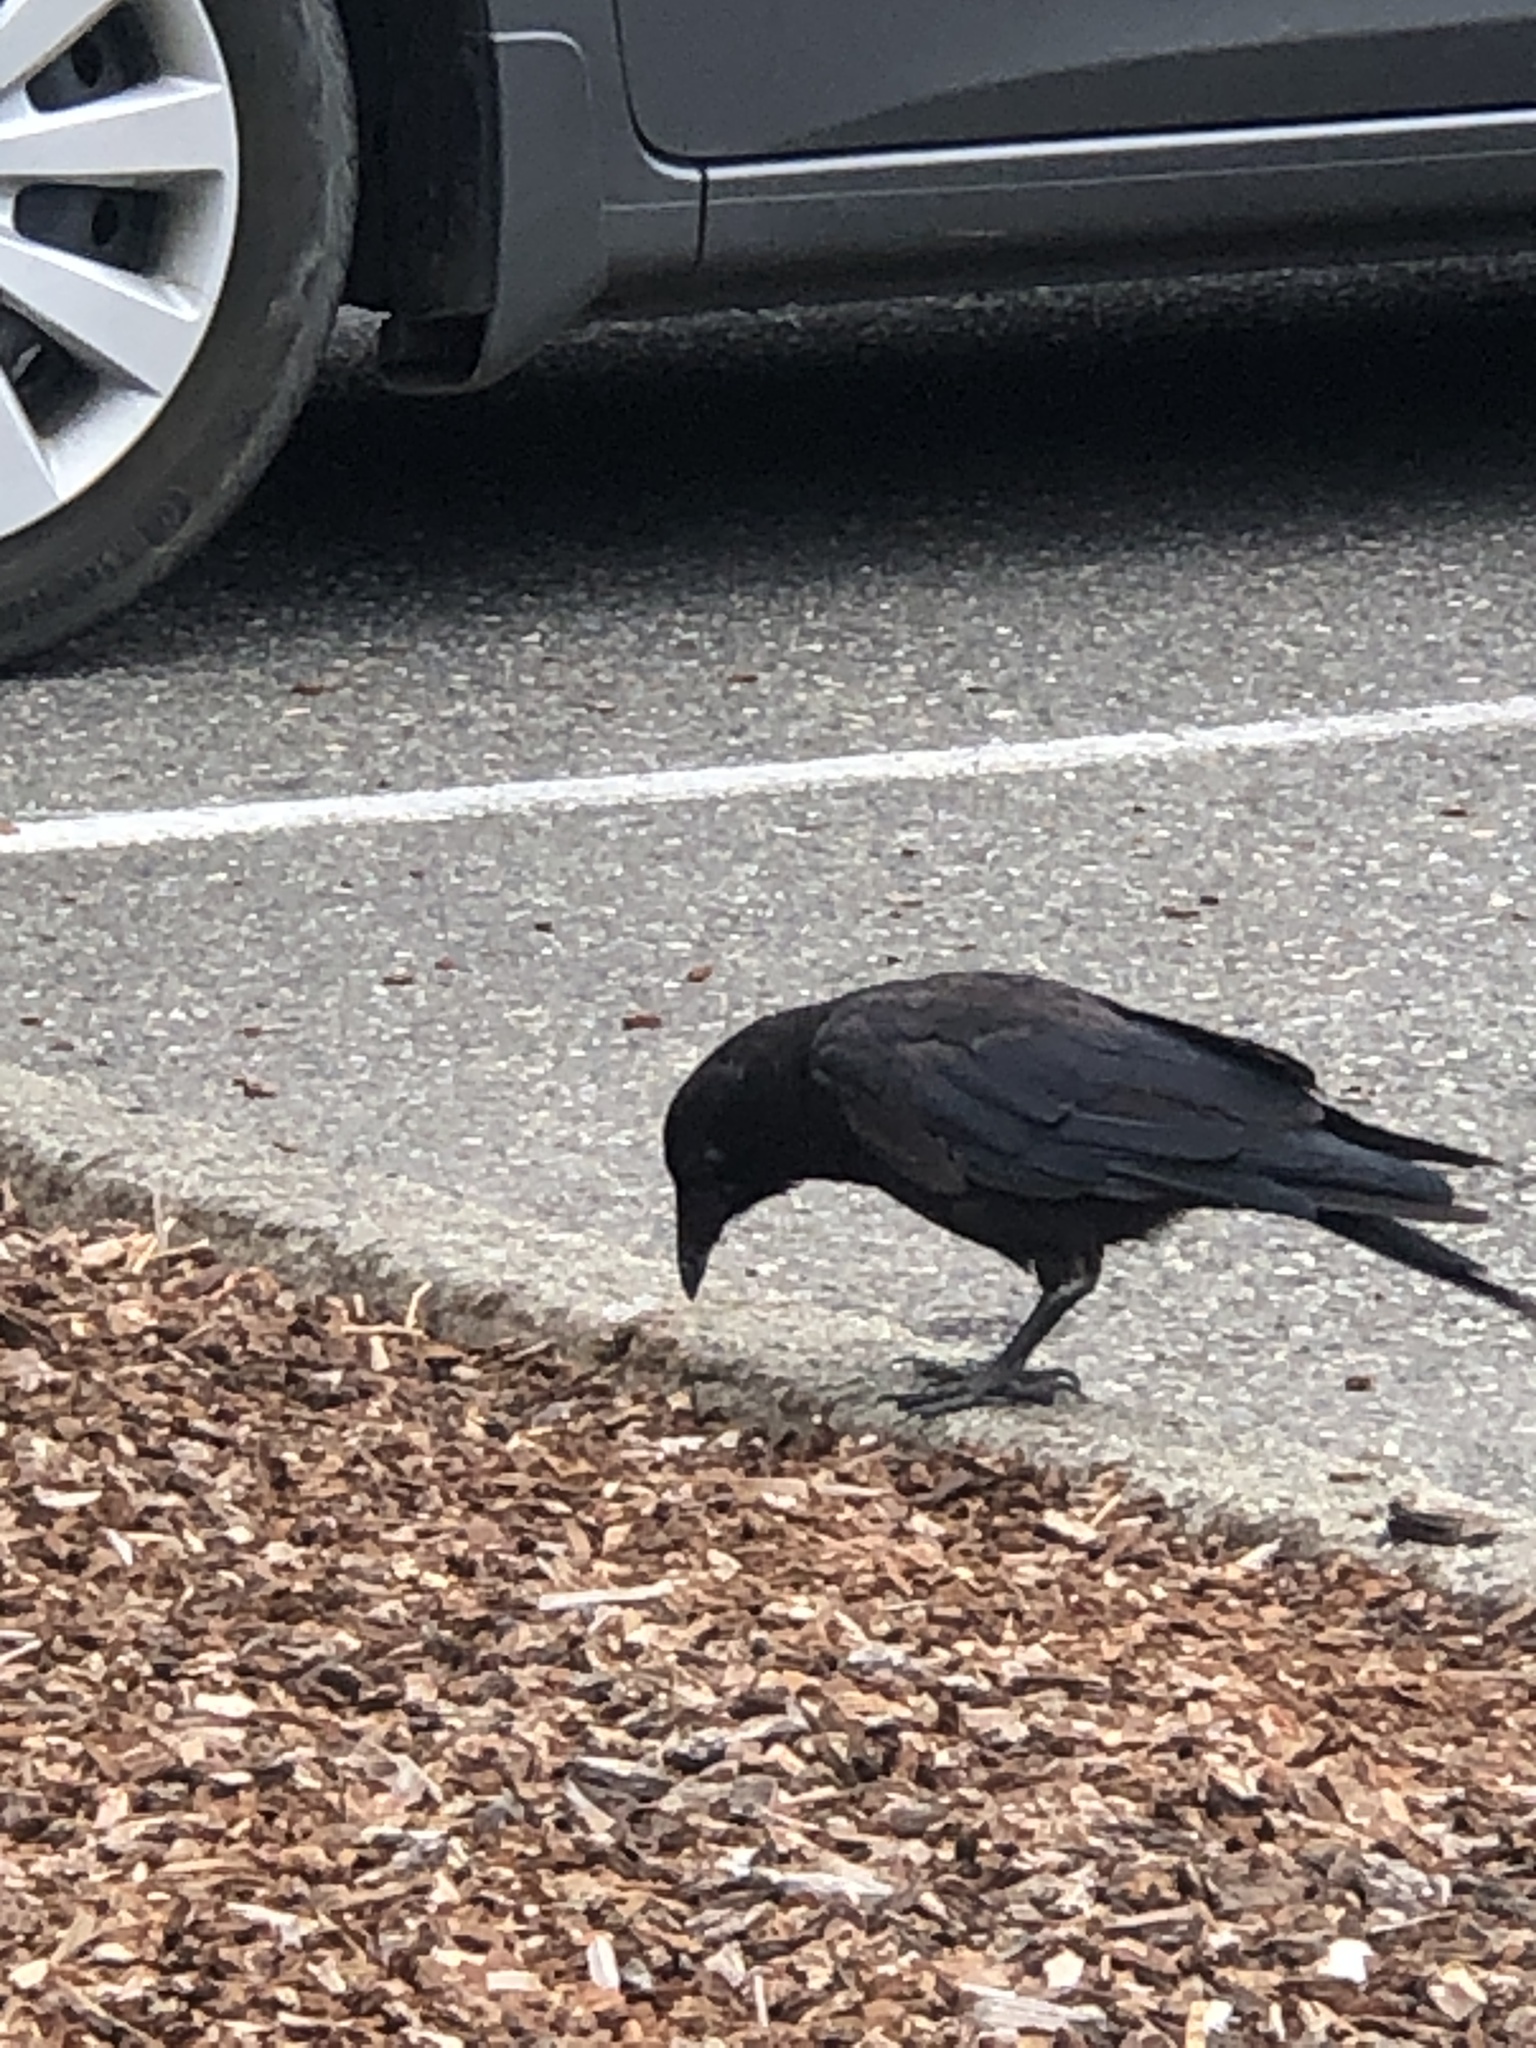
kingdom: Animalia
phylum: Chordata
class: Aves
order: Passeriformes
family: Corvidae
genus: Corvus
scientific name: Corvus brachyrhynchos
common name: American crow
